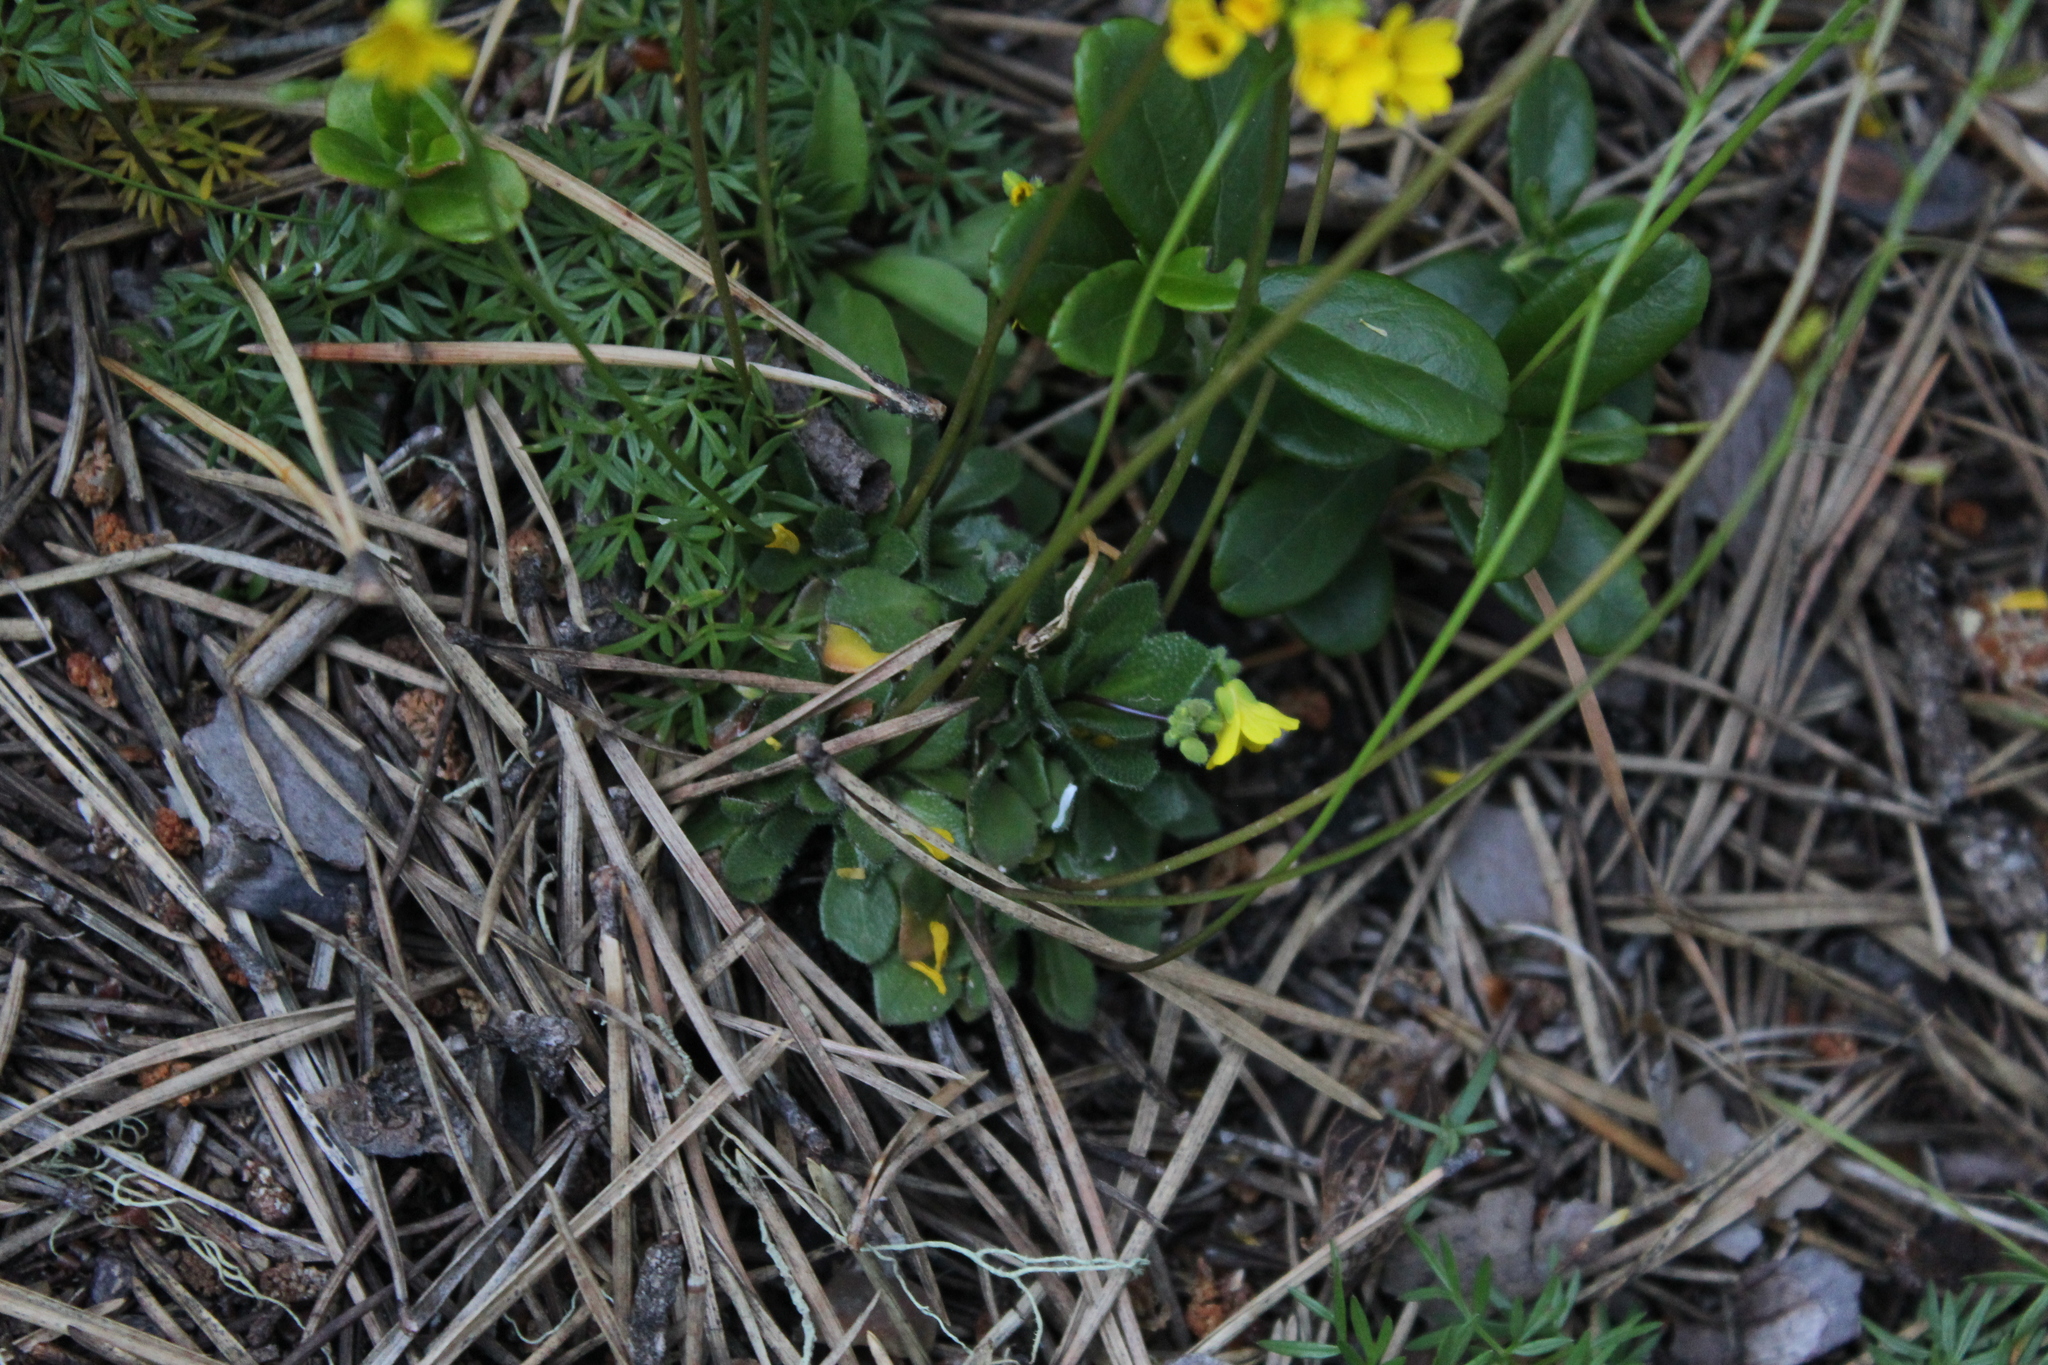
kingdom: Plantae
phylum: Tracheophyta
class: Magnoliopsida
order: Brassicales
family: Brassicaceae
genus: Draba
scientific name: Draba hispida
